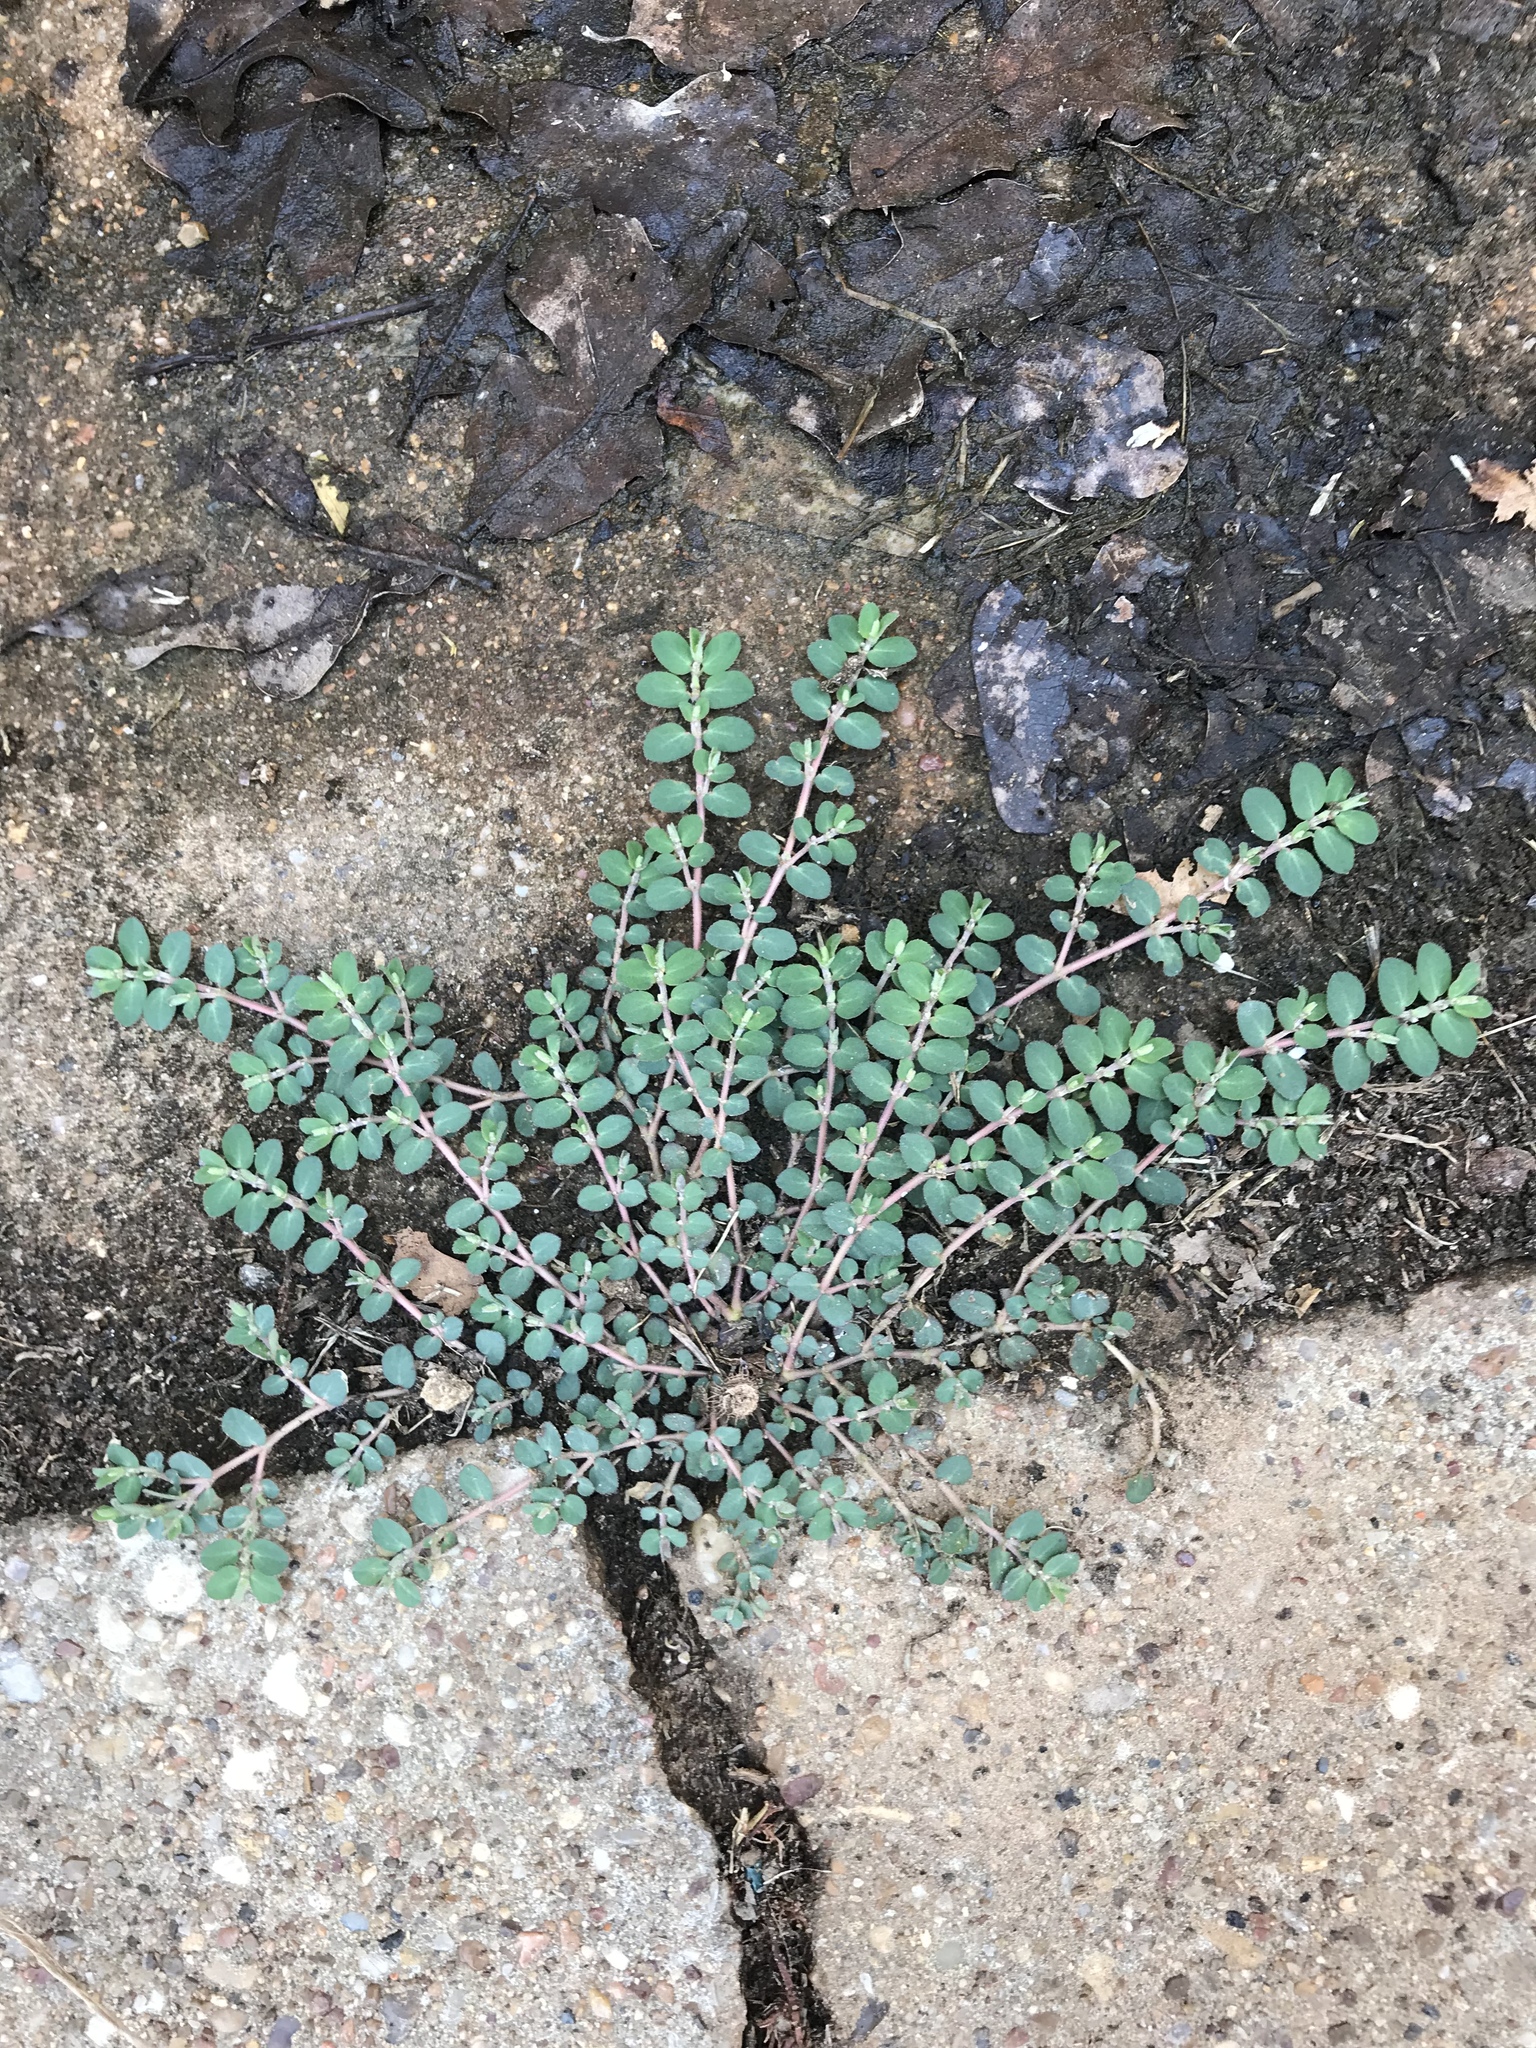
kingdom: Plantae
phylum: Tracheophyta
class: Magnoliopsida
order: Malpighiales
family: Euphorbiaceae
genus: Euphorbia
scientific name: Euphorbia prostrata
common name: Prostrate sandmat
